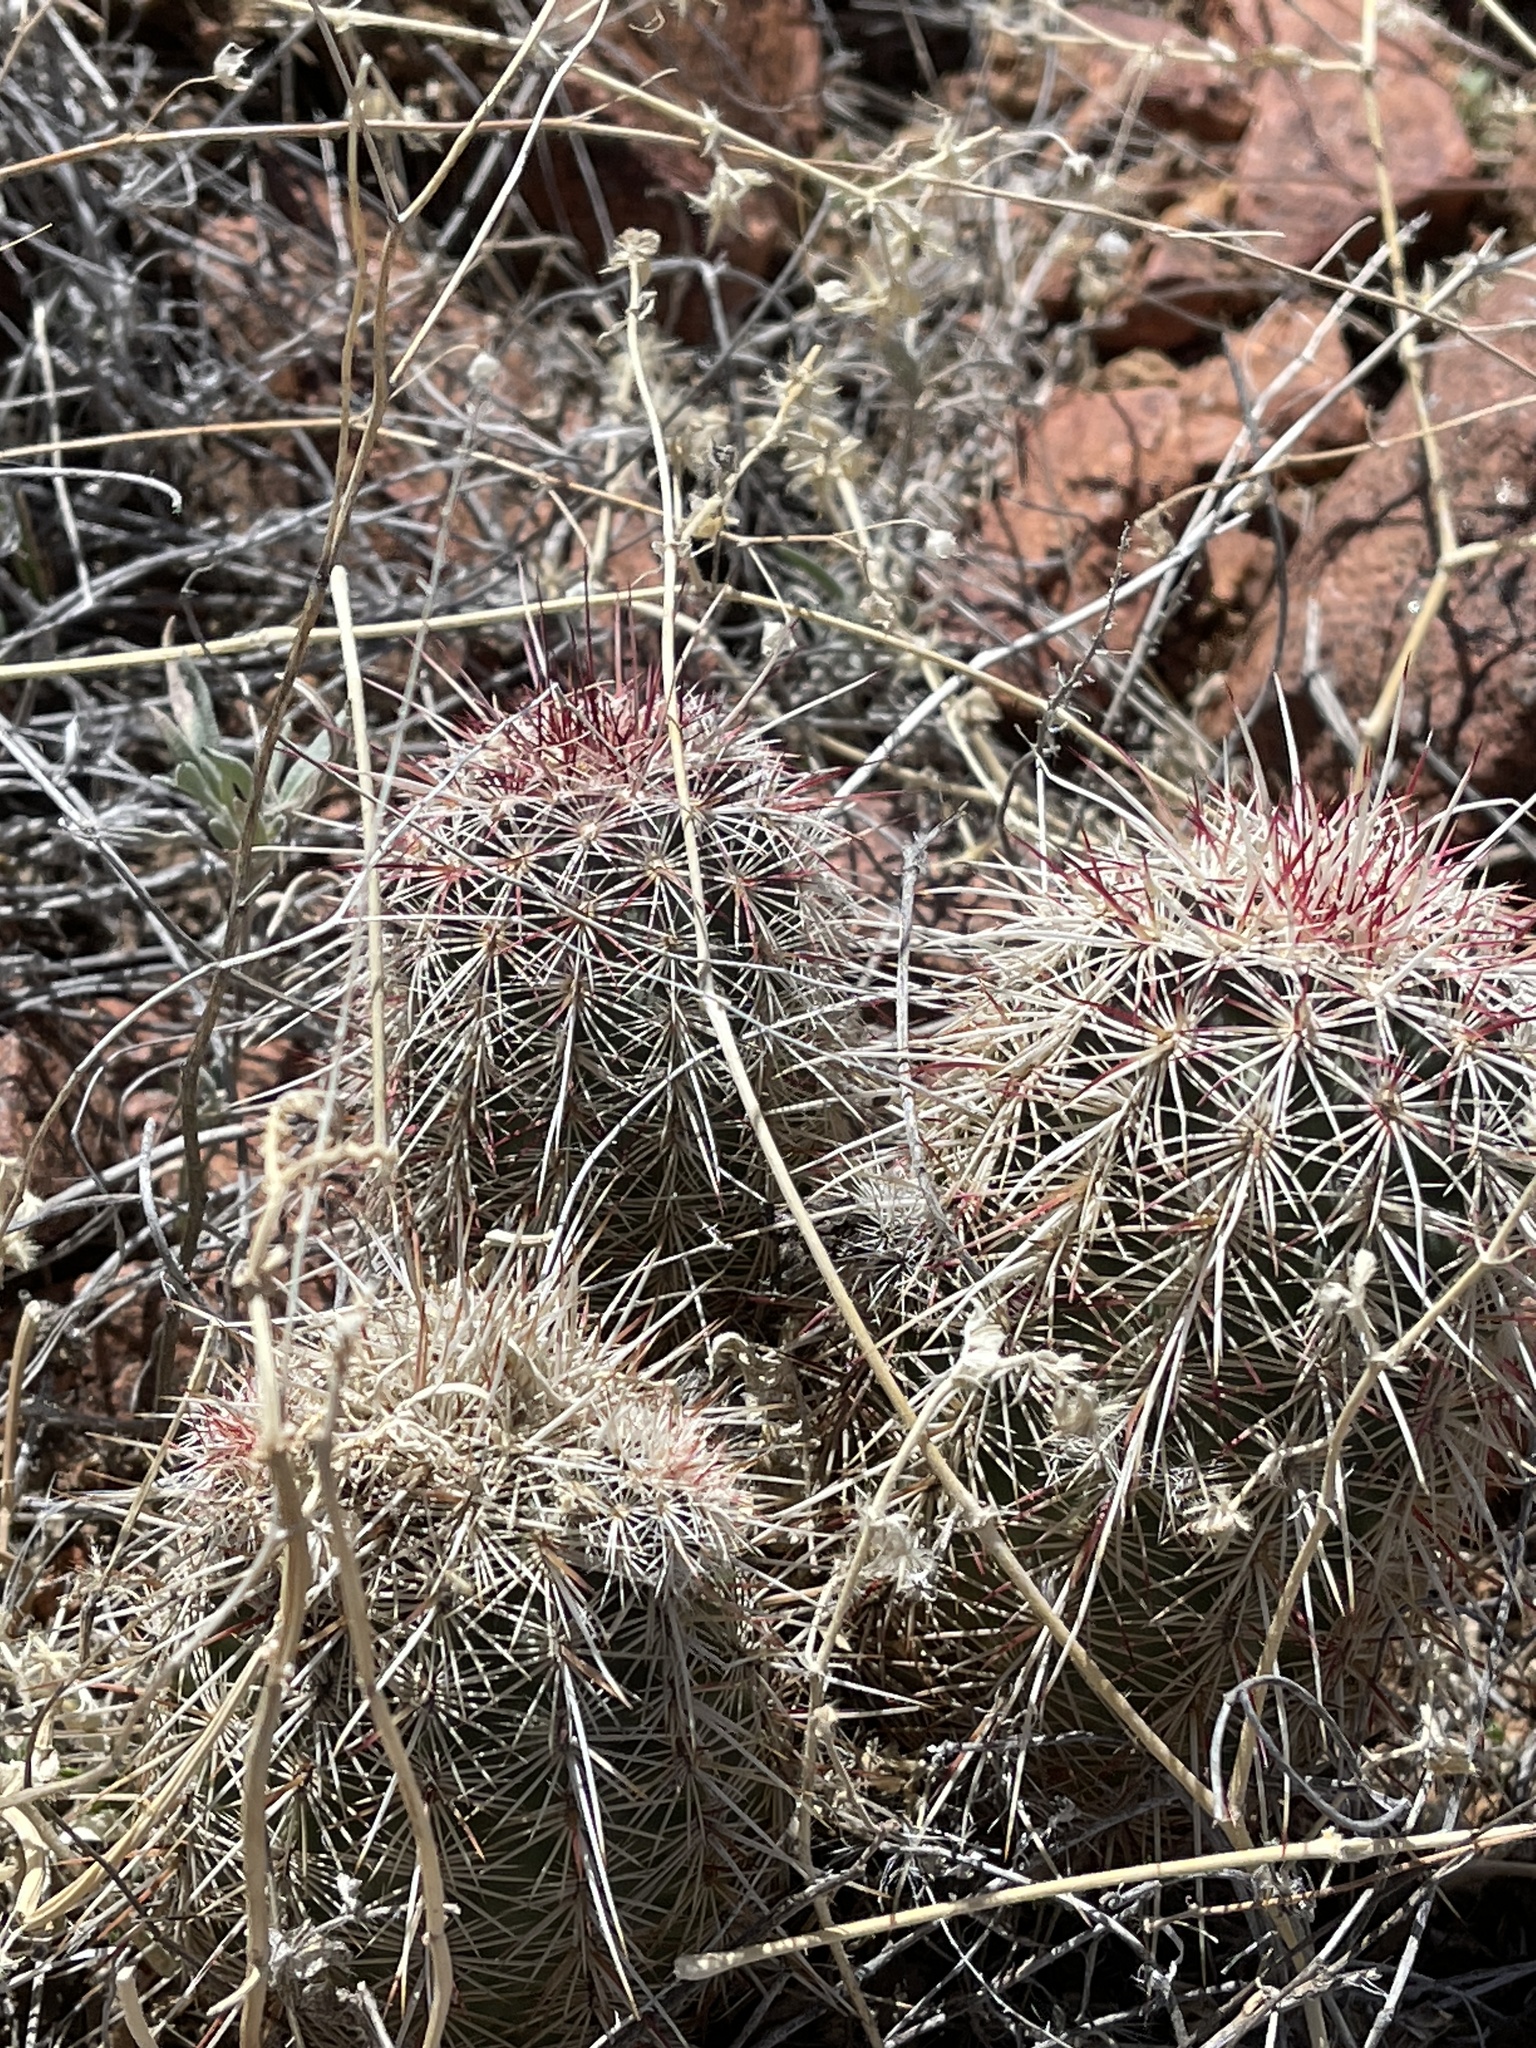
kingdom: Plantae
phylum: Tracheophyta
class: Magnoliopsida
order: Caryophyllales
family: Cactaceae
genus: Echinocereus
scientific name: Echinocereus viridiflorus
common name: Nylon hedgehog cactus
